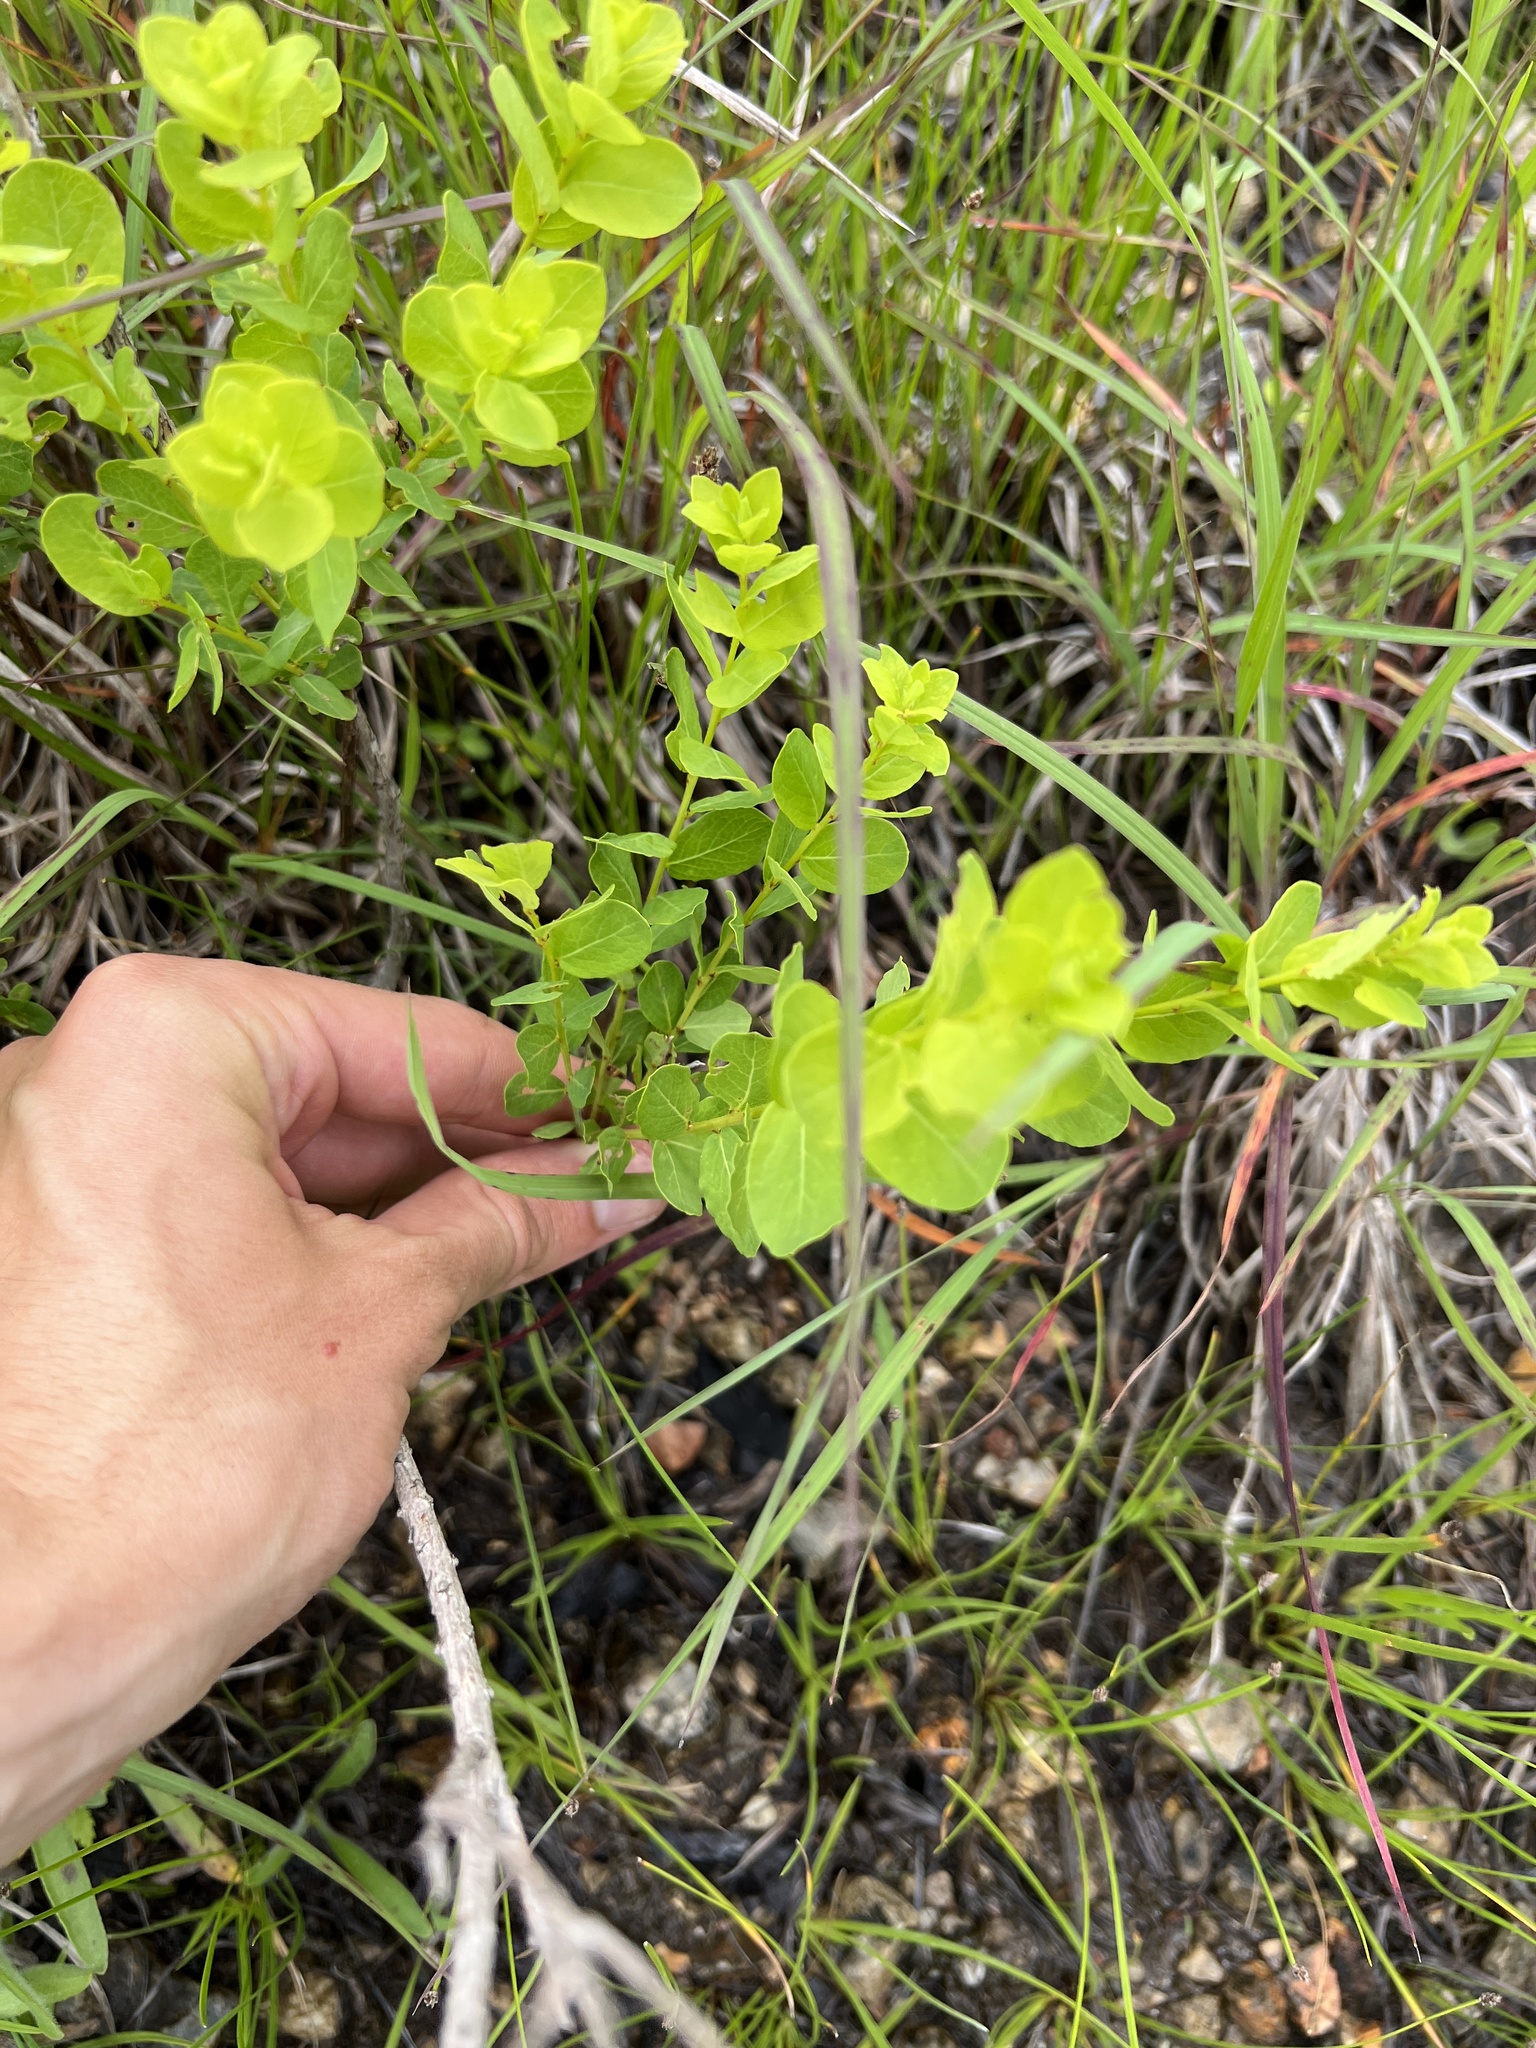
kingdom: Plantae
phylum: Tracheophyta
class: Magnoliopsida
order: Malpighiales
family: Phyllanthaceae
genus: Phyllanthopsis
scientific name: Phyllanthopsis phyllanthoides
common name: Missouri maidenbush
